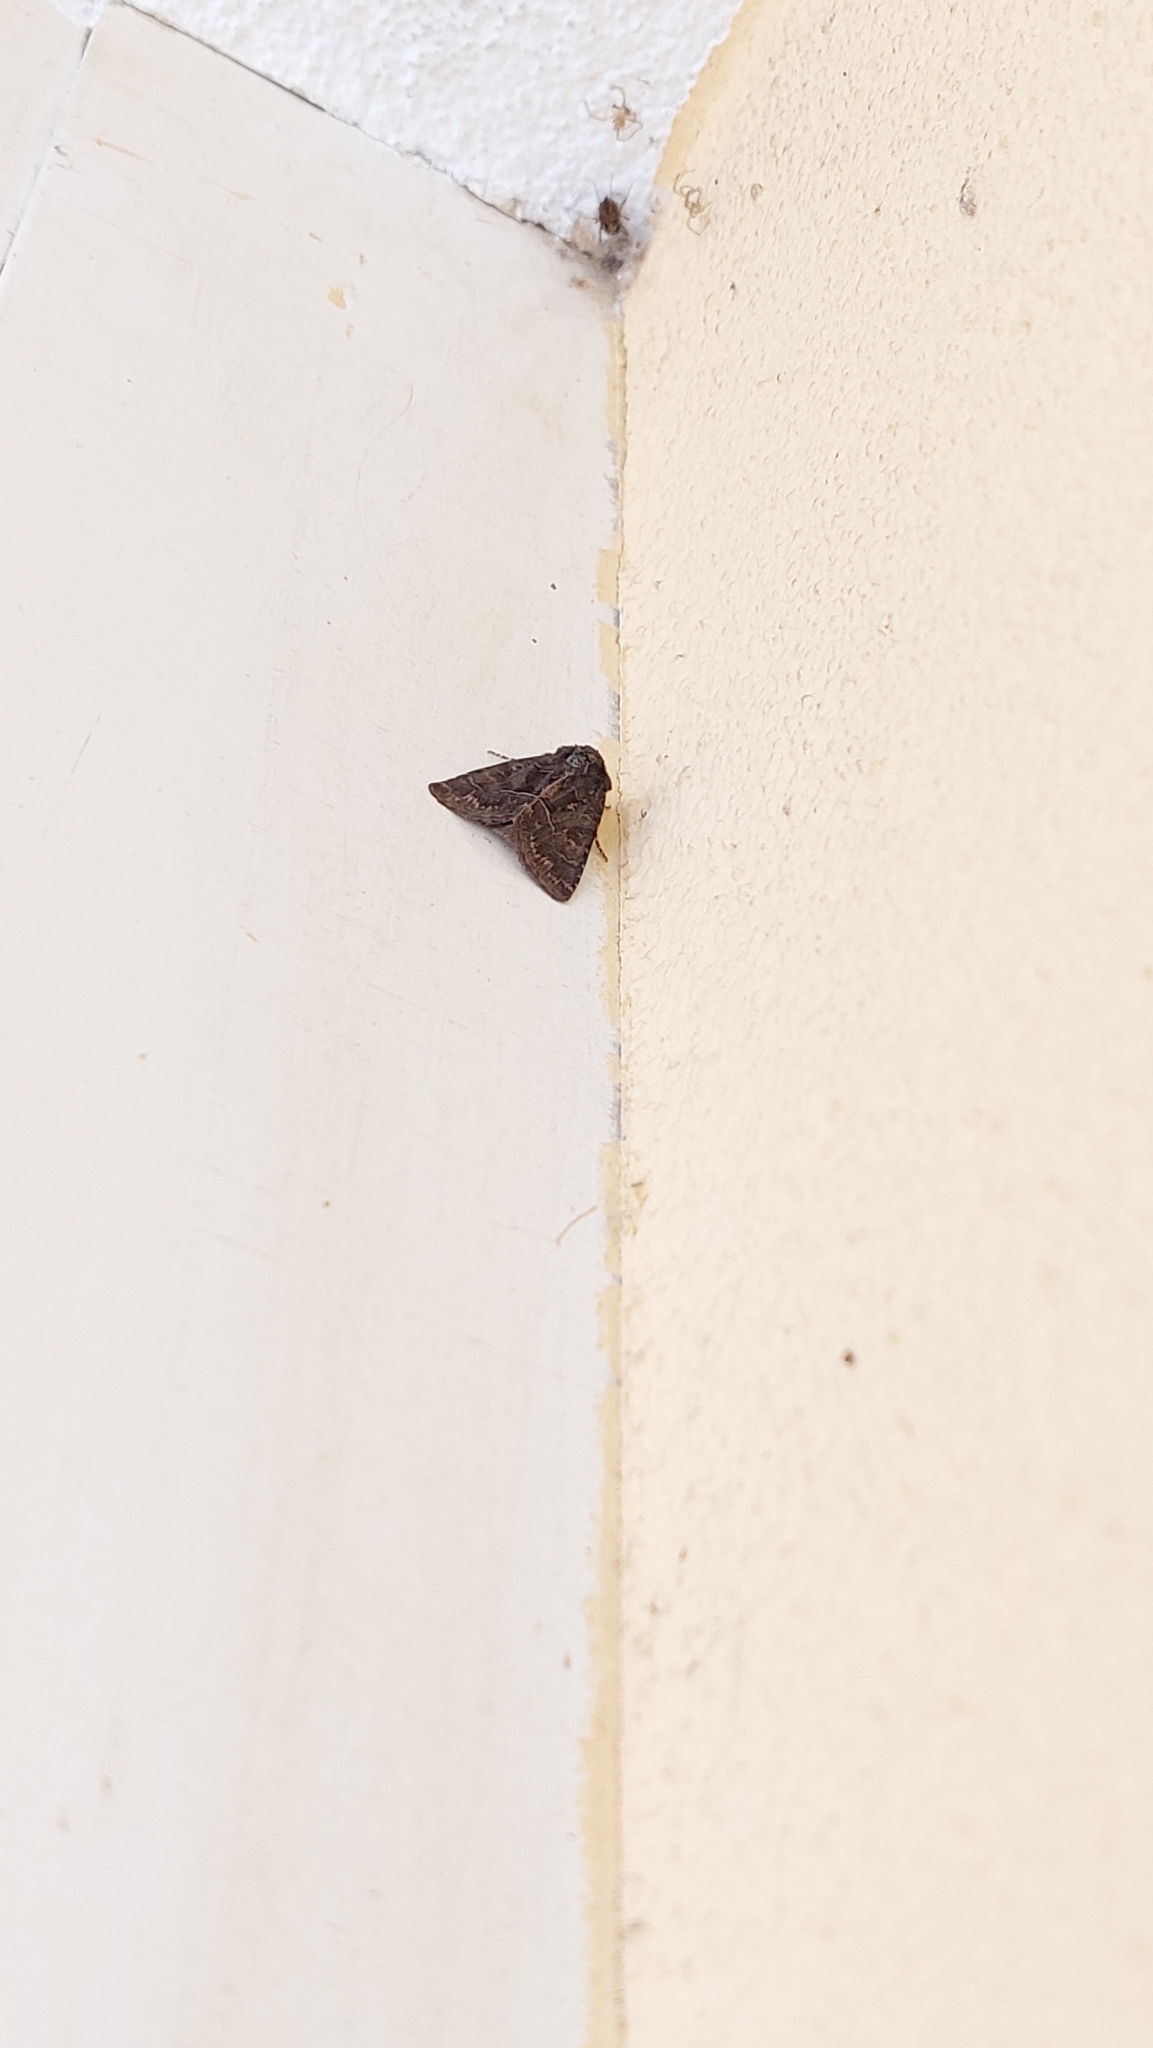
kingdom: Animalia
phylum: Arthropoda
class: Insecta
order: Lepidoptera
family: Noctuidae
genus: Thalpophila
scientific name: Thalpophila matura
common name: Straw underwing
